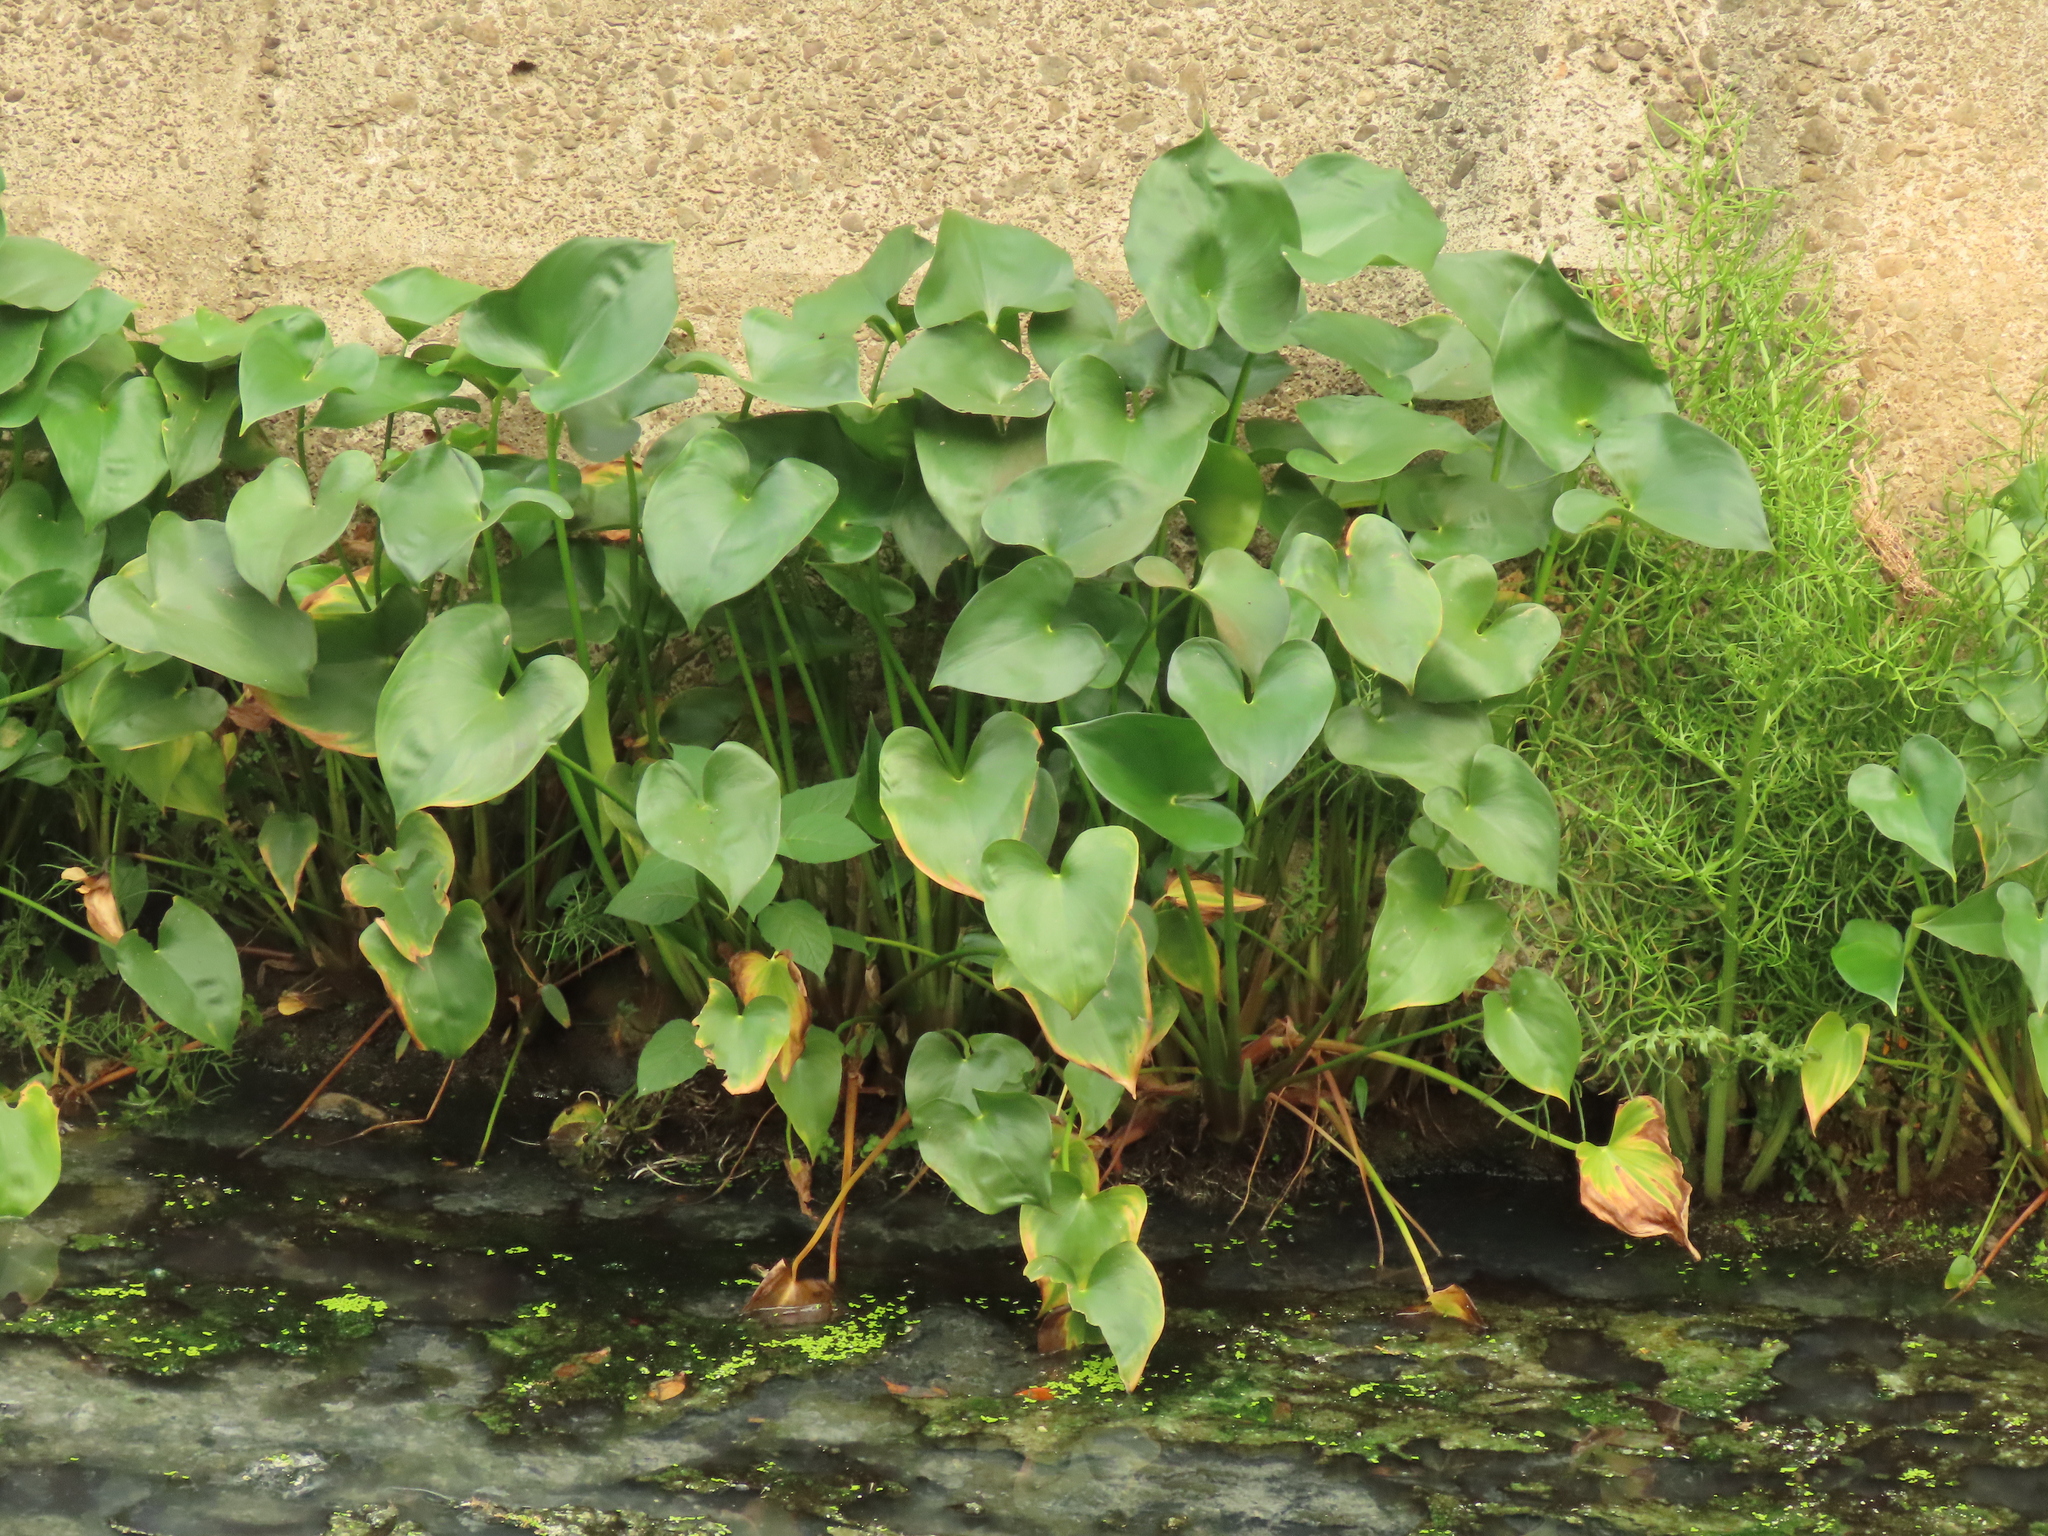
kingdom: Plantae
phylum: Tracheophyta
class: Liliopsida
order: Commelinales
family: Pontederiaceae
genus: Pontederia
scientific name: Pontederia vaginalis
